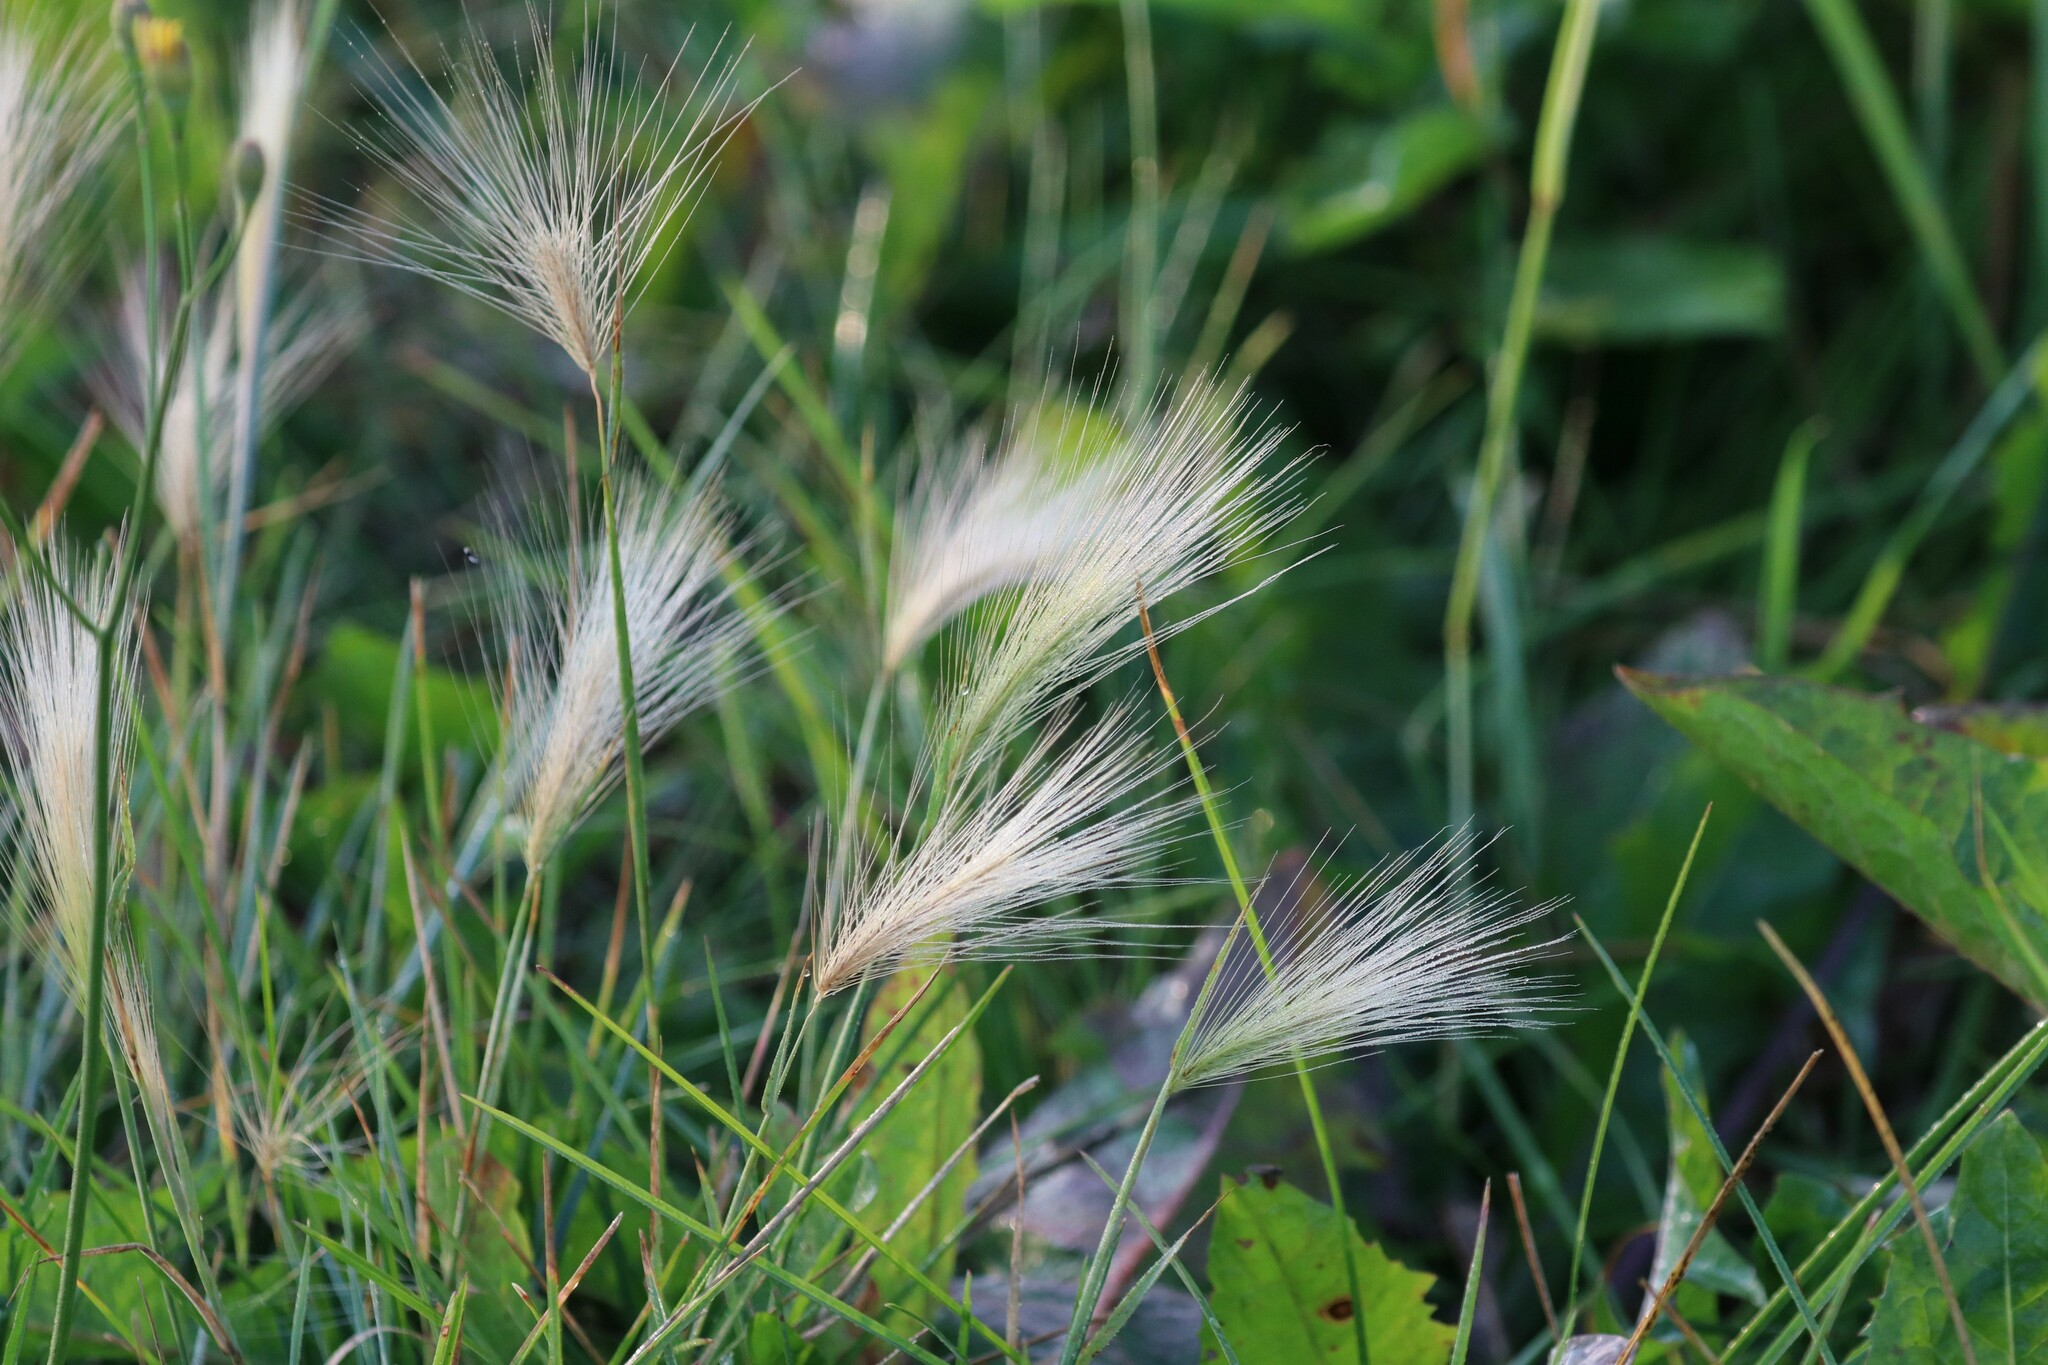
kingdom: Plantae
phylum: Tracheophyta
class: Liliopsida
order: Poales
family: Poaceae
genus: Hordeum
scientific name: Hordeum jubatum
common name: Foxtail barley
